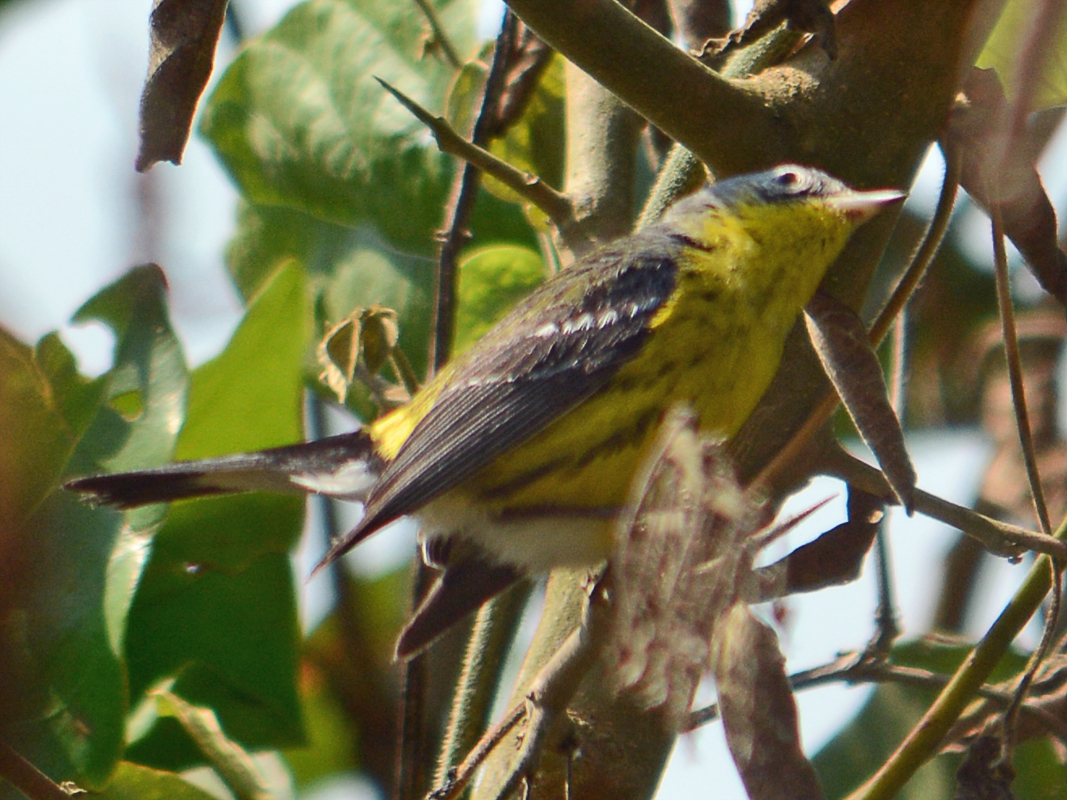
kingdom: Animalia
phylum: Chordata
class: Aves
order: Passeriformes
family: Parulidae
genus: Setophaga
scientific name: Setophaga magnolia
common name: Magnolia warbler
